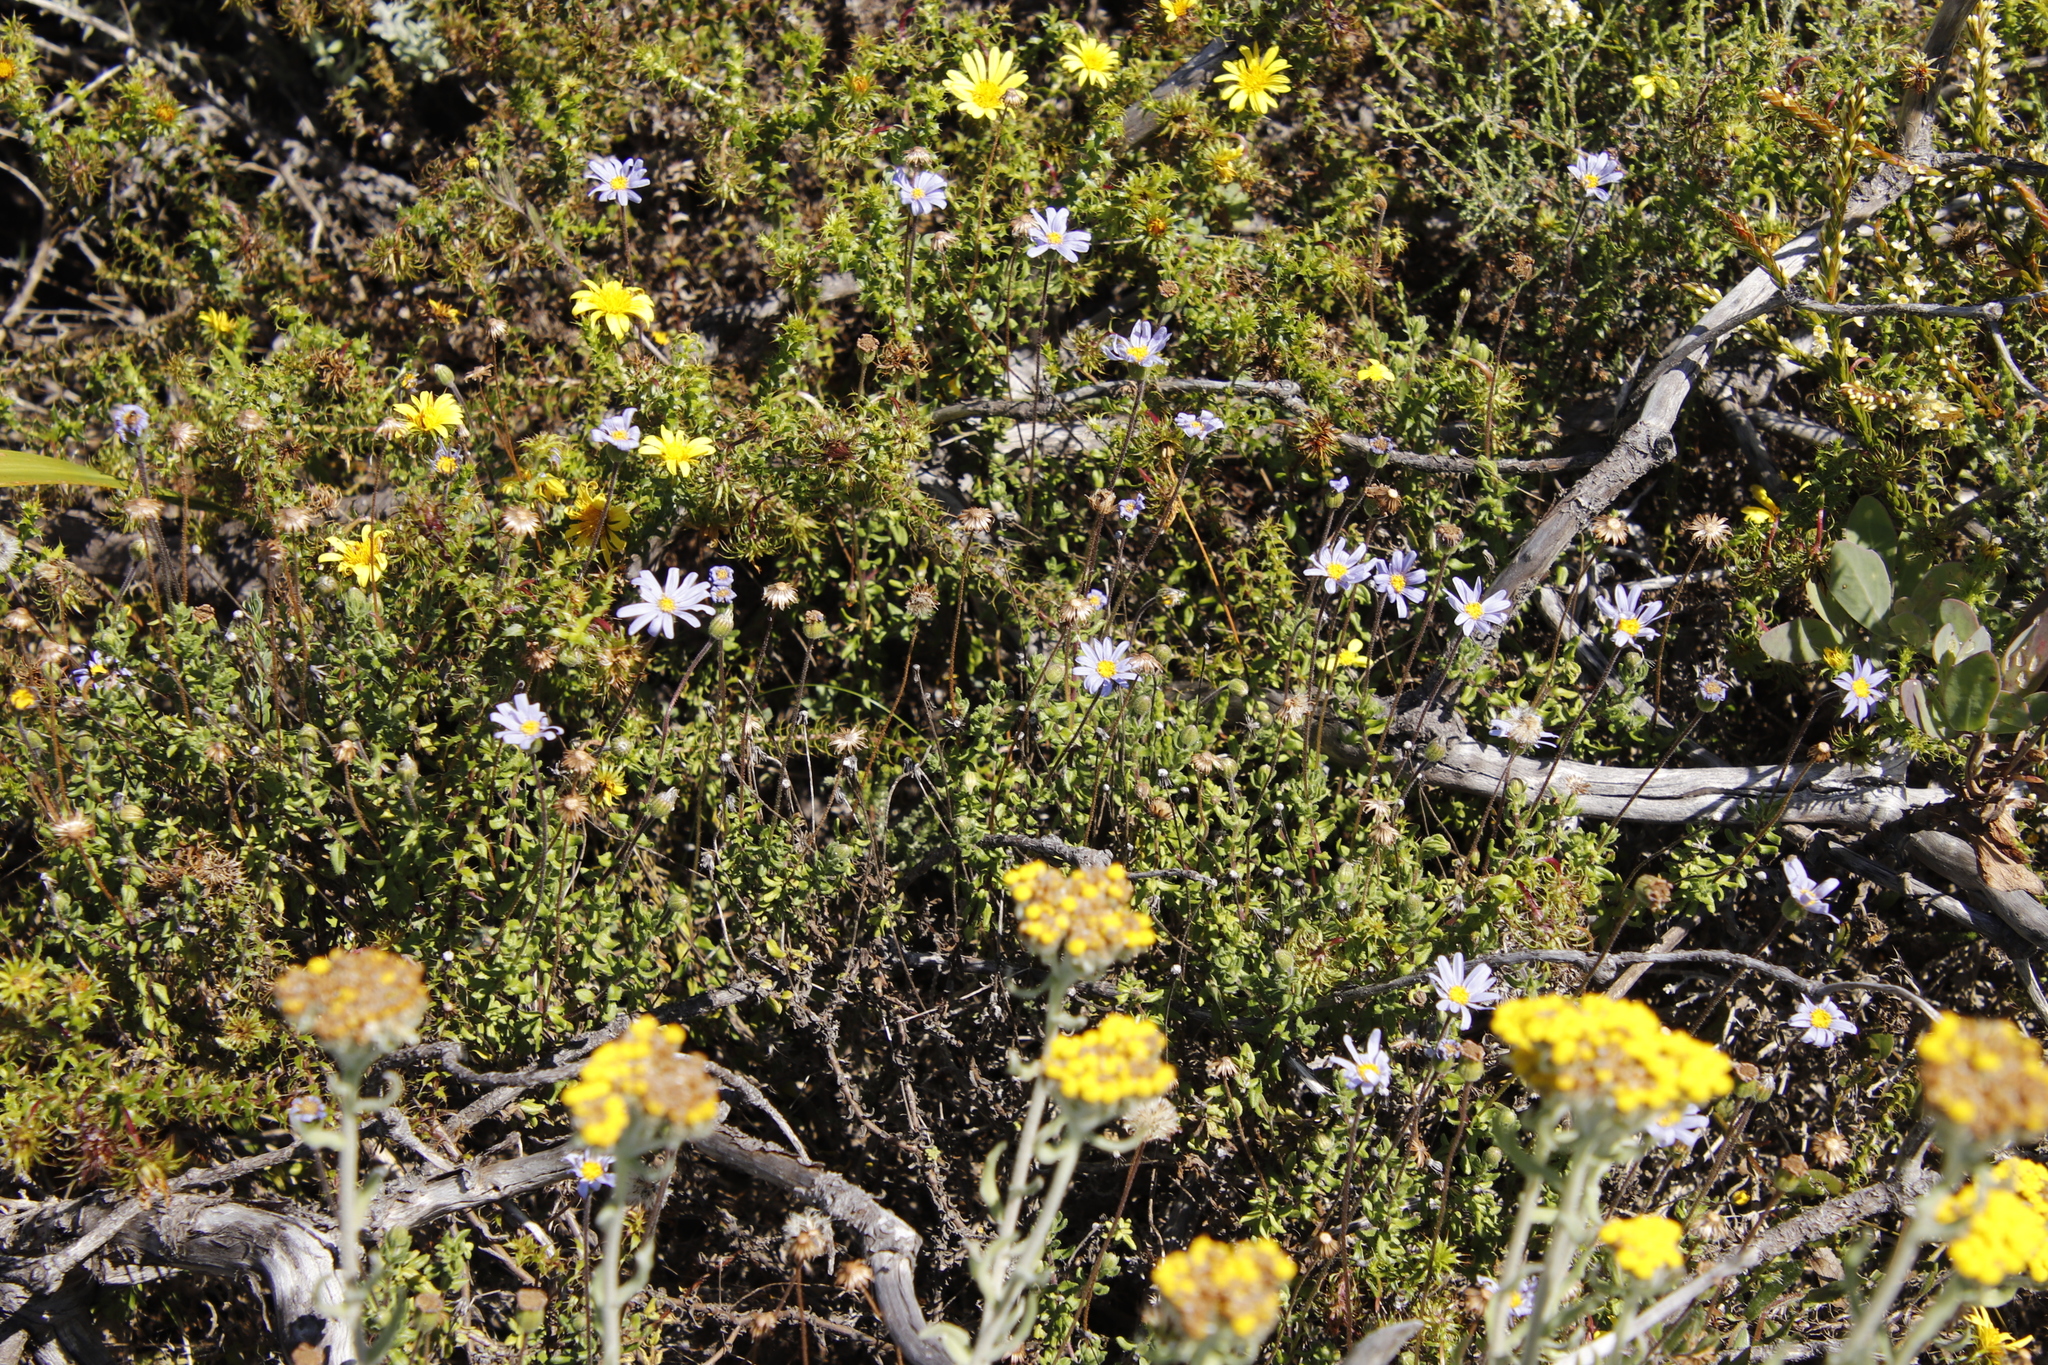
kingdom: Plantae
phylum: Tracheophyta
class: Magnoliopsida
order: Asterales
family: Asteraceae
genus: Felicia
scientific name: Felicia aethiopica
